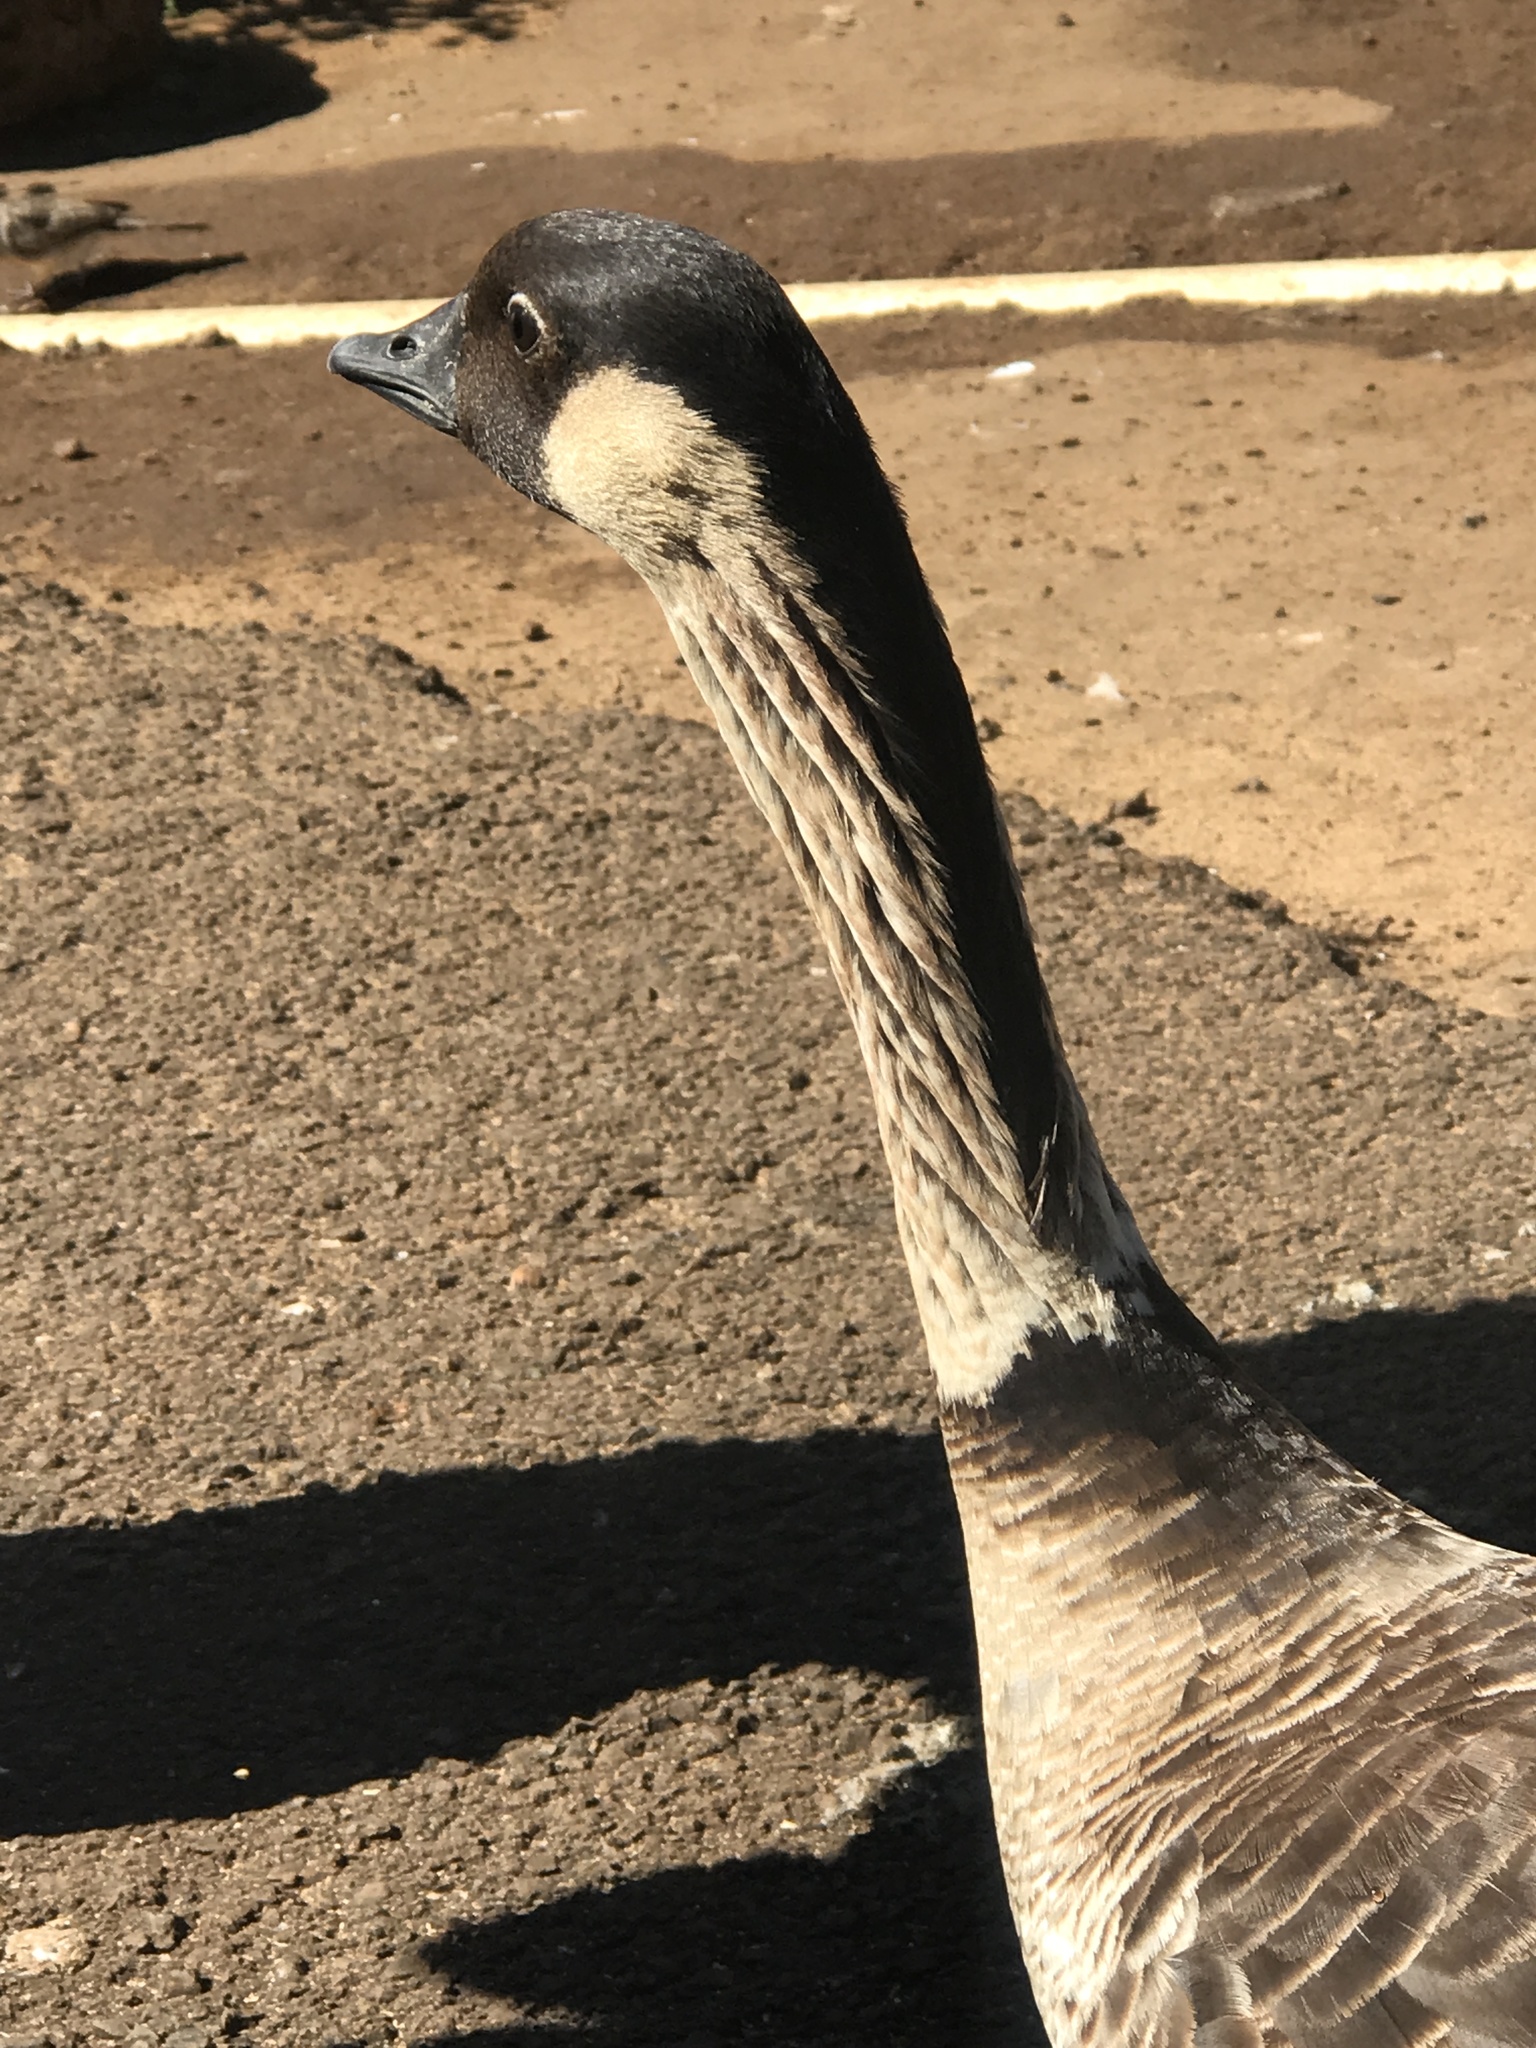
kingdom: Animalia
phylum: Chordata
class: Aves
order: Anseriformes
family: Anatidae
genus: Branta
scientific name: Branta sandvicensis
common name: Nene
